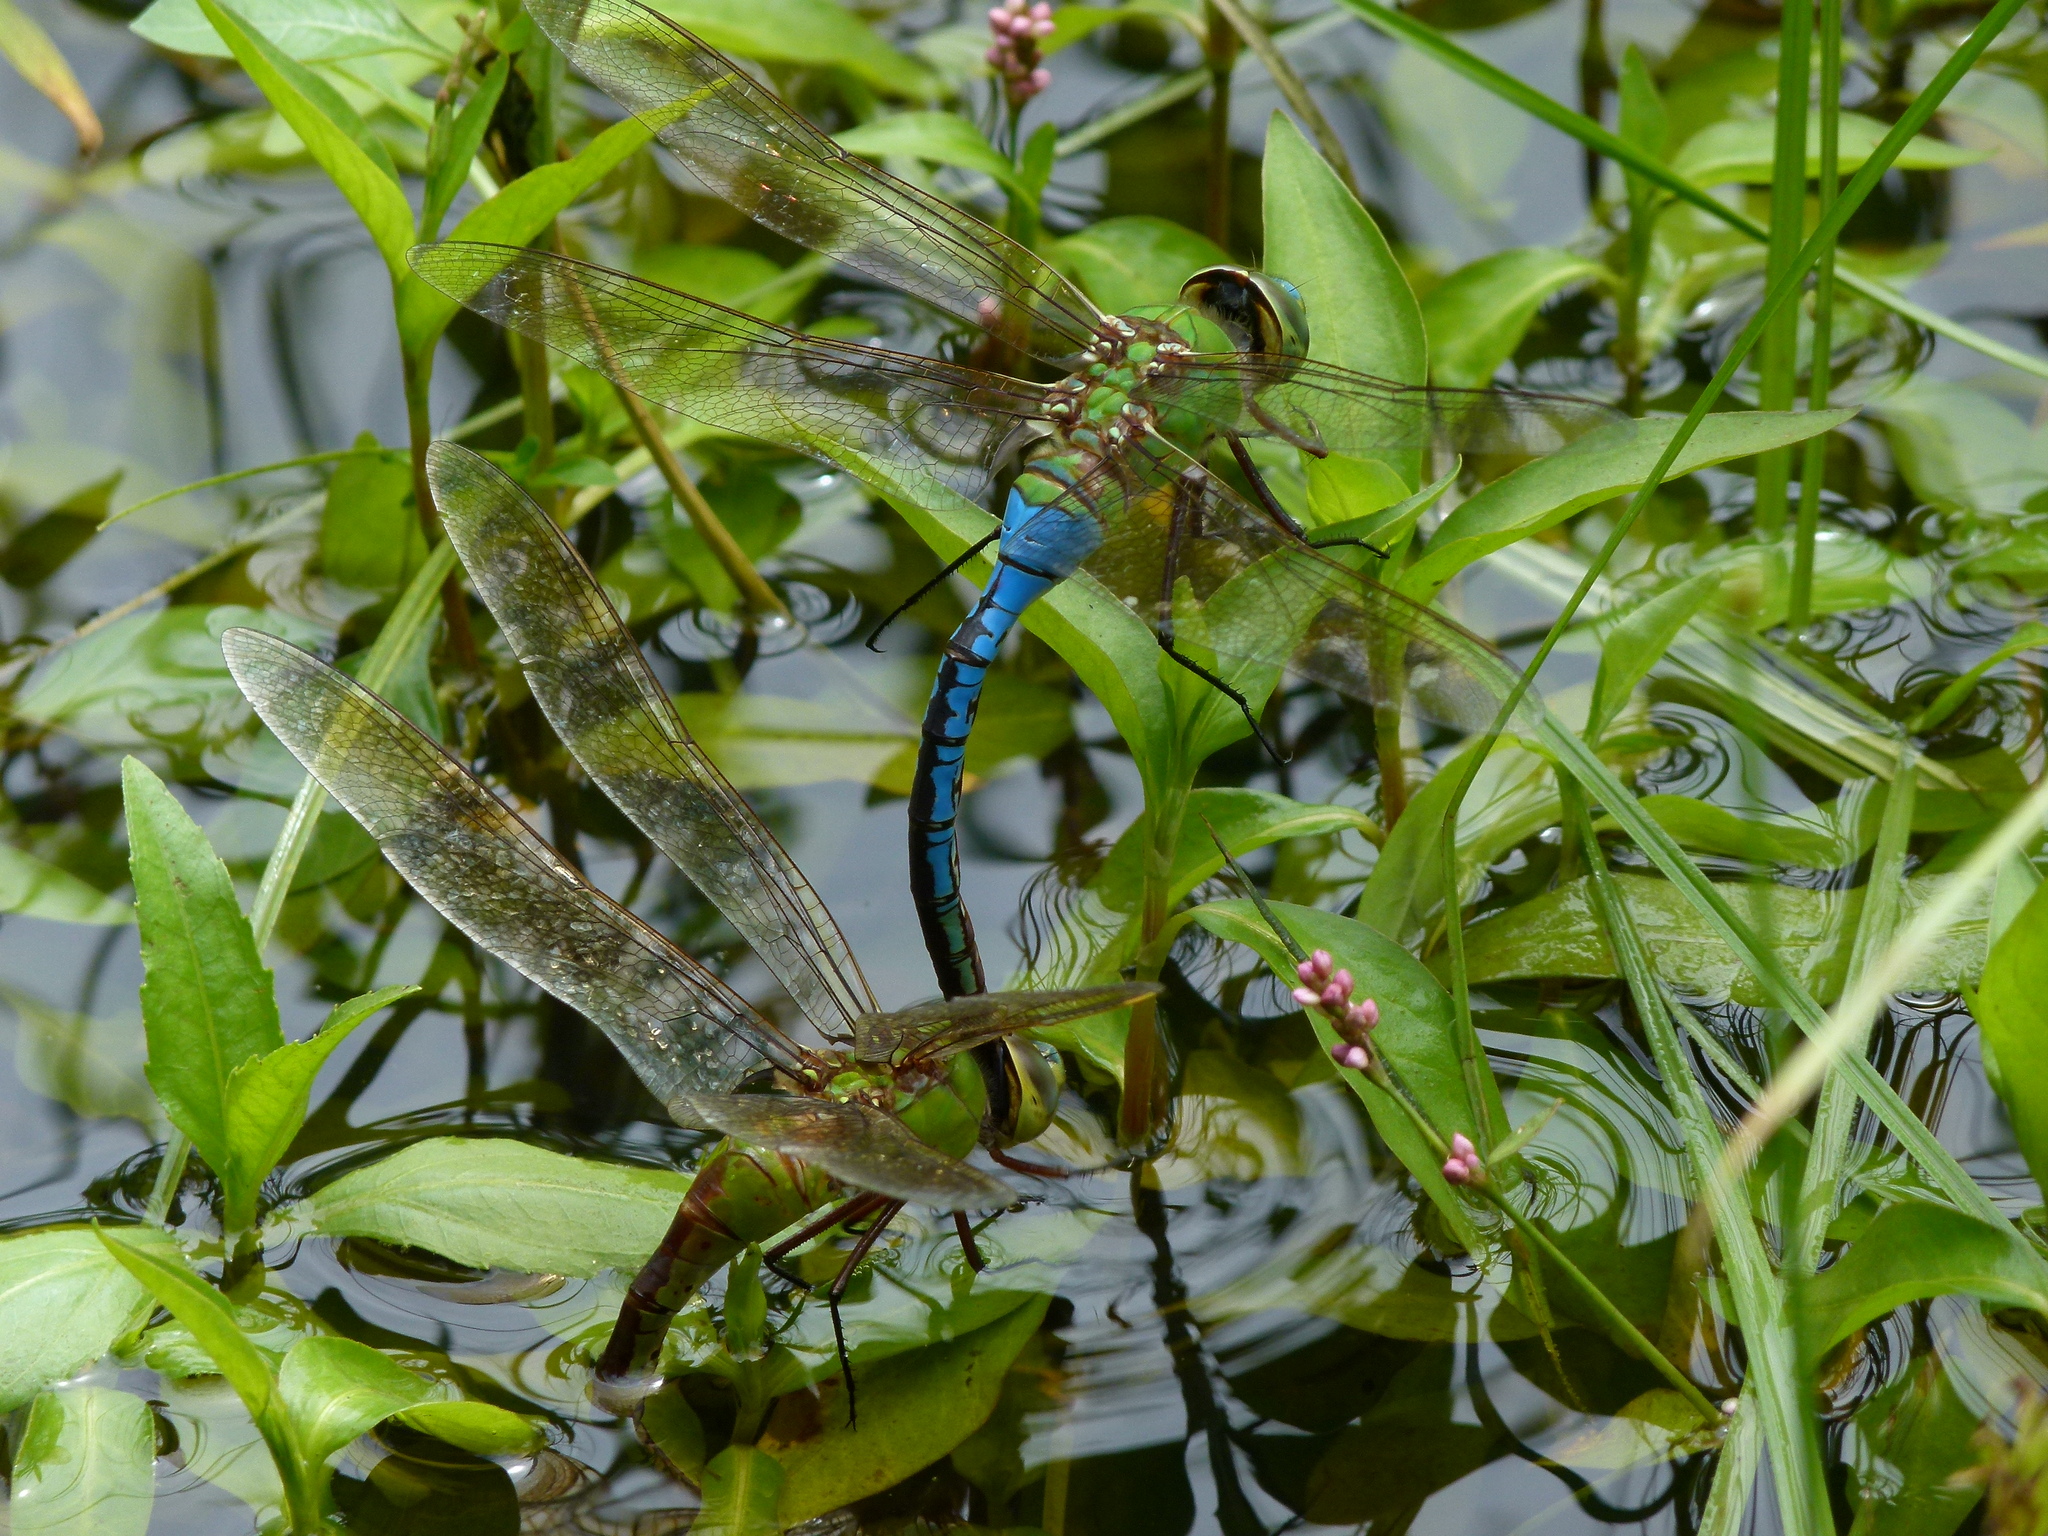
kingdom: Animalia
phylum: Arthropoda
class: Insecta
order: Odonata
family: Aeshnidae
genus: Anax
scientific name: Anax junius
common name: Common green darner
